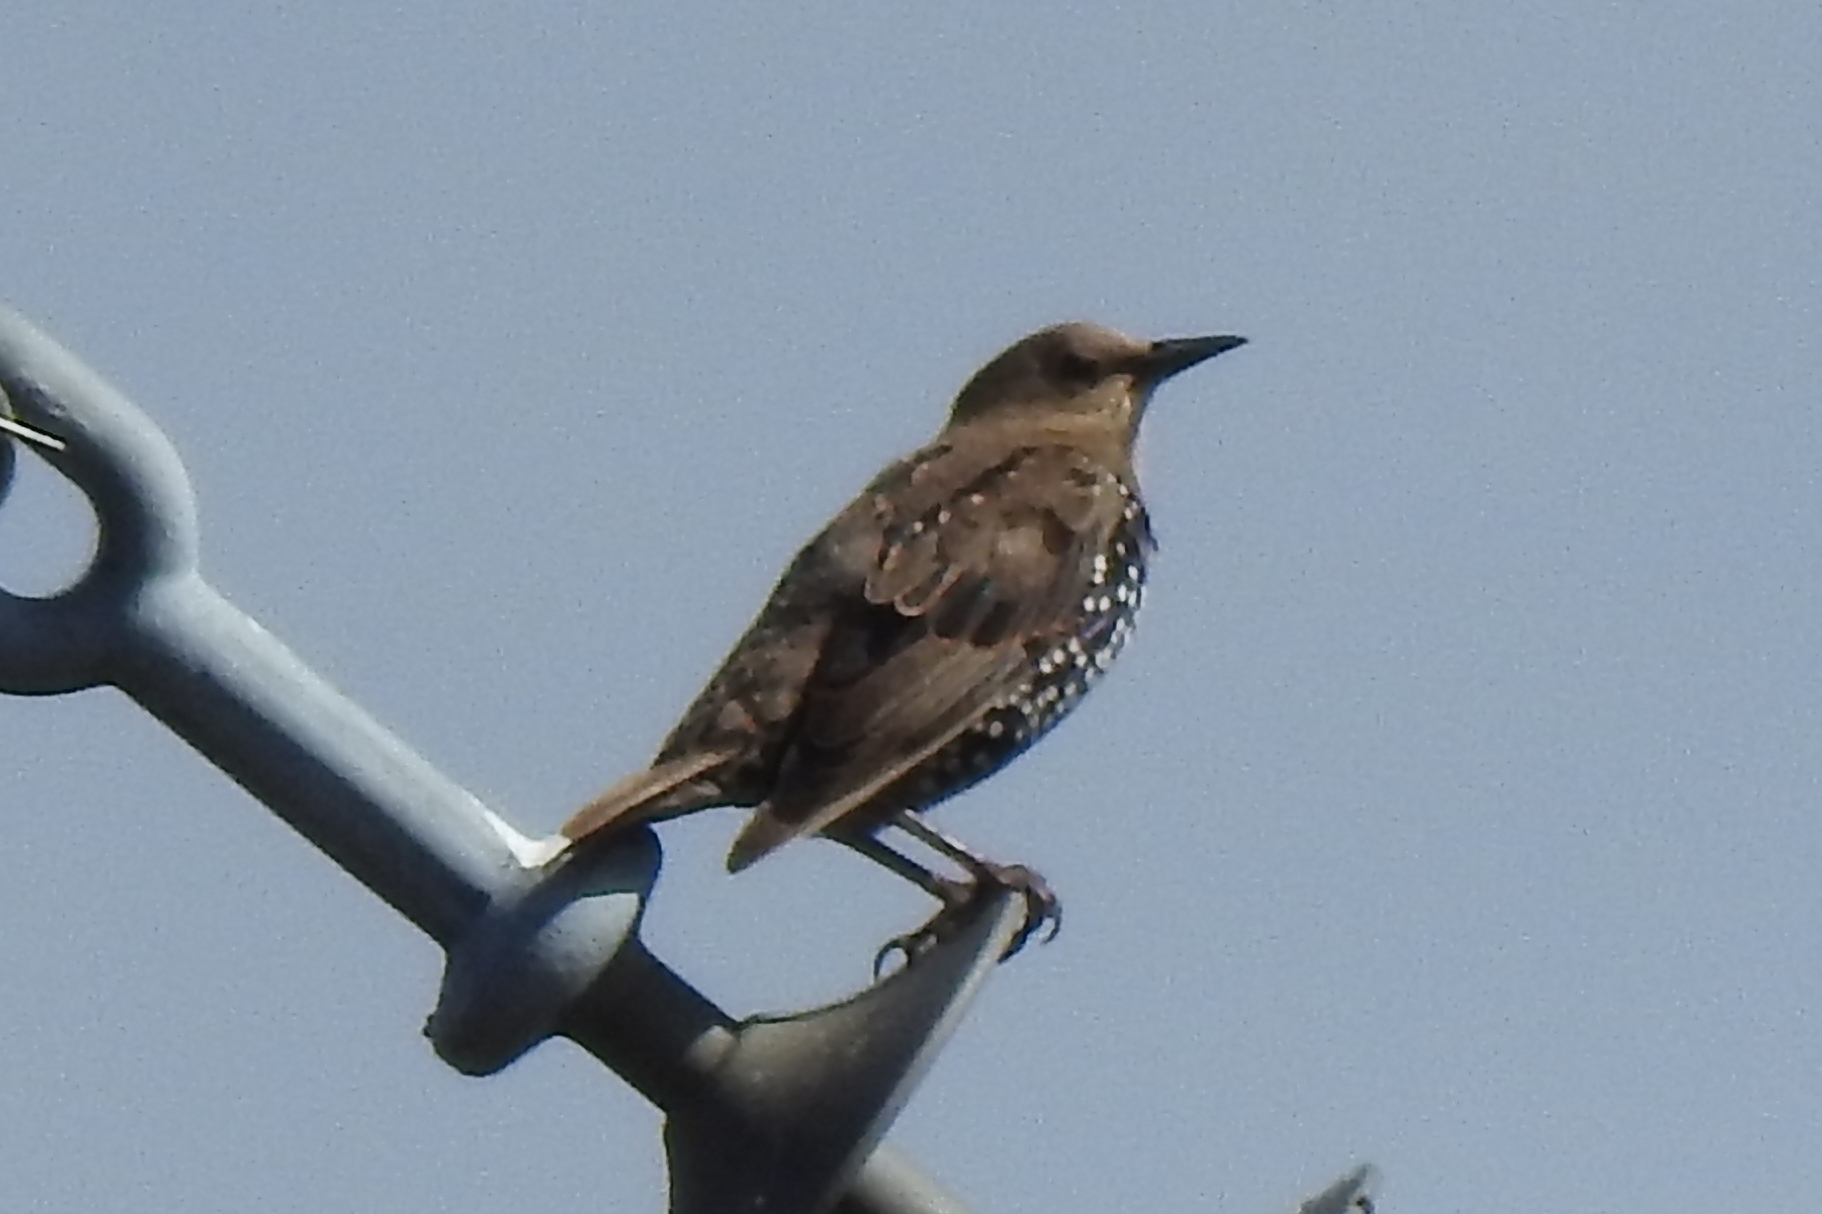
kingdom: Animalia
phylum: Chordata
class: Aves
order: Passeriformes
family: Sturnidae
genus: Sturnus
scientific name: Sturnus vulgaris
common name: Common starling
